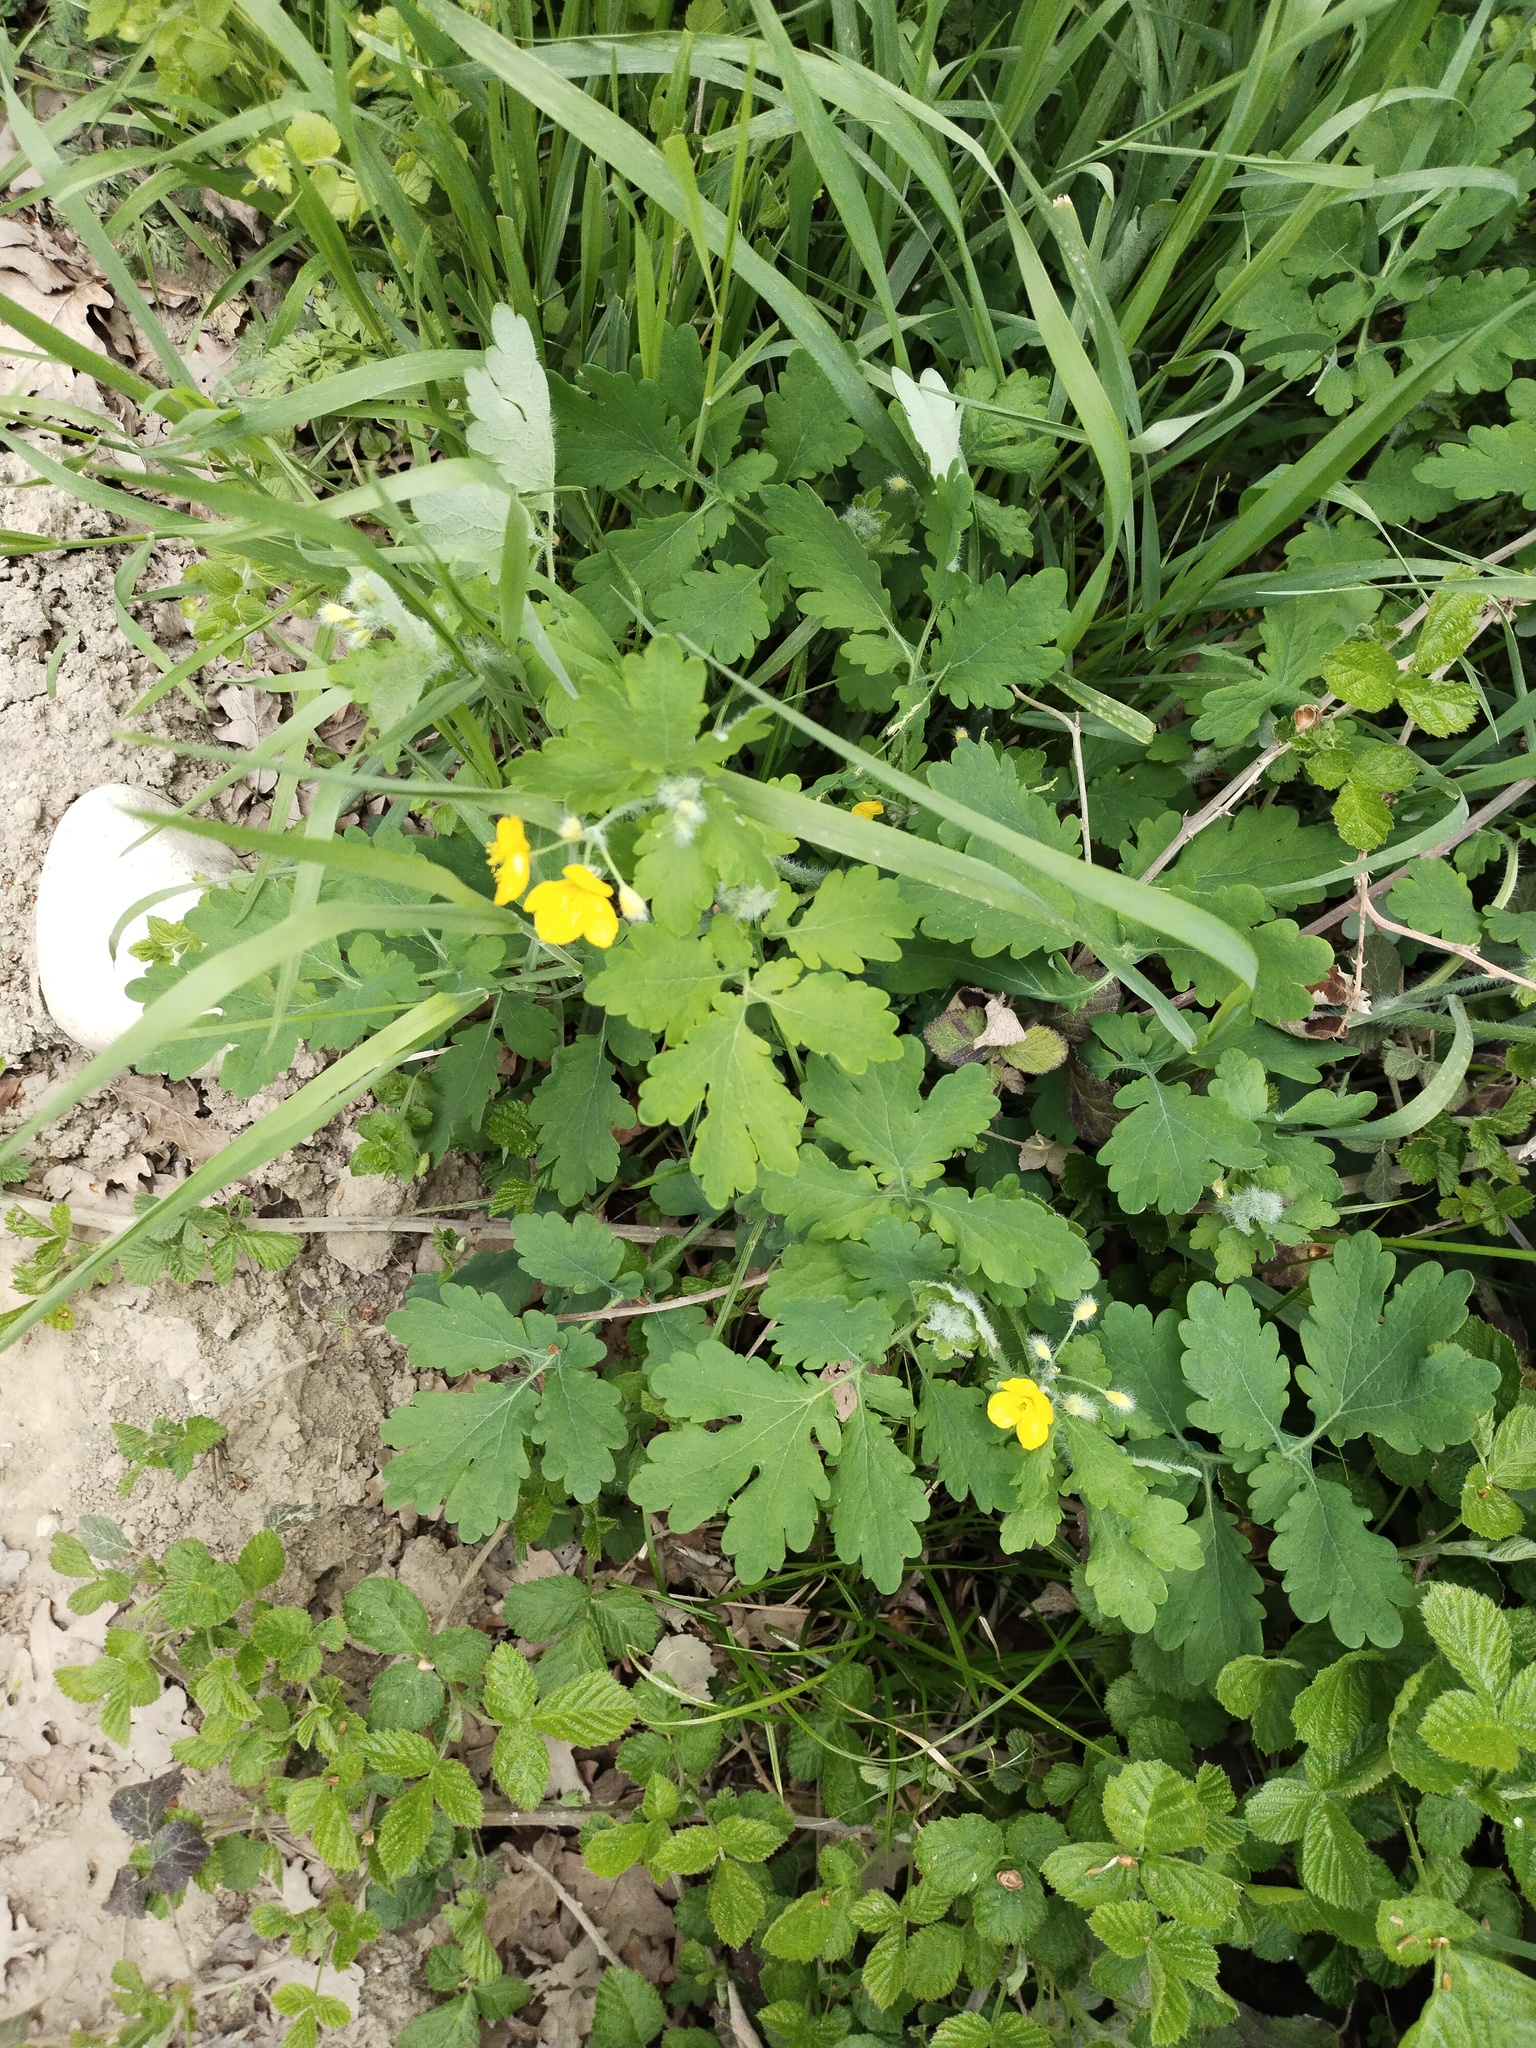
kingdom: Plantae
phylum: Tracheophyta
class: Magnoliopsida
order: Ranunculales
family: Papaveraceae
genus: Chelidonium
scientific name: Chelidonium majus
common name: Greater celandine
